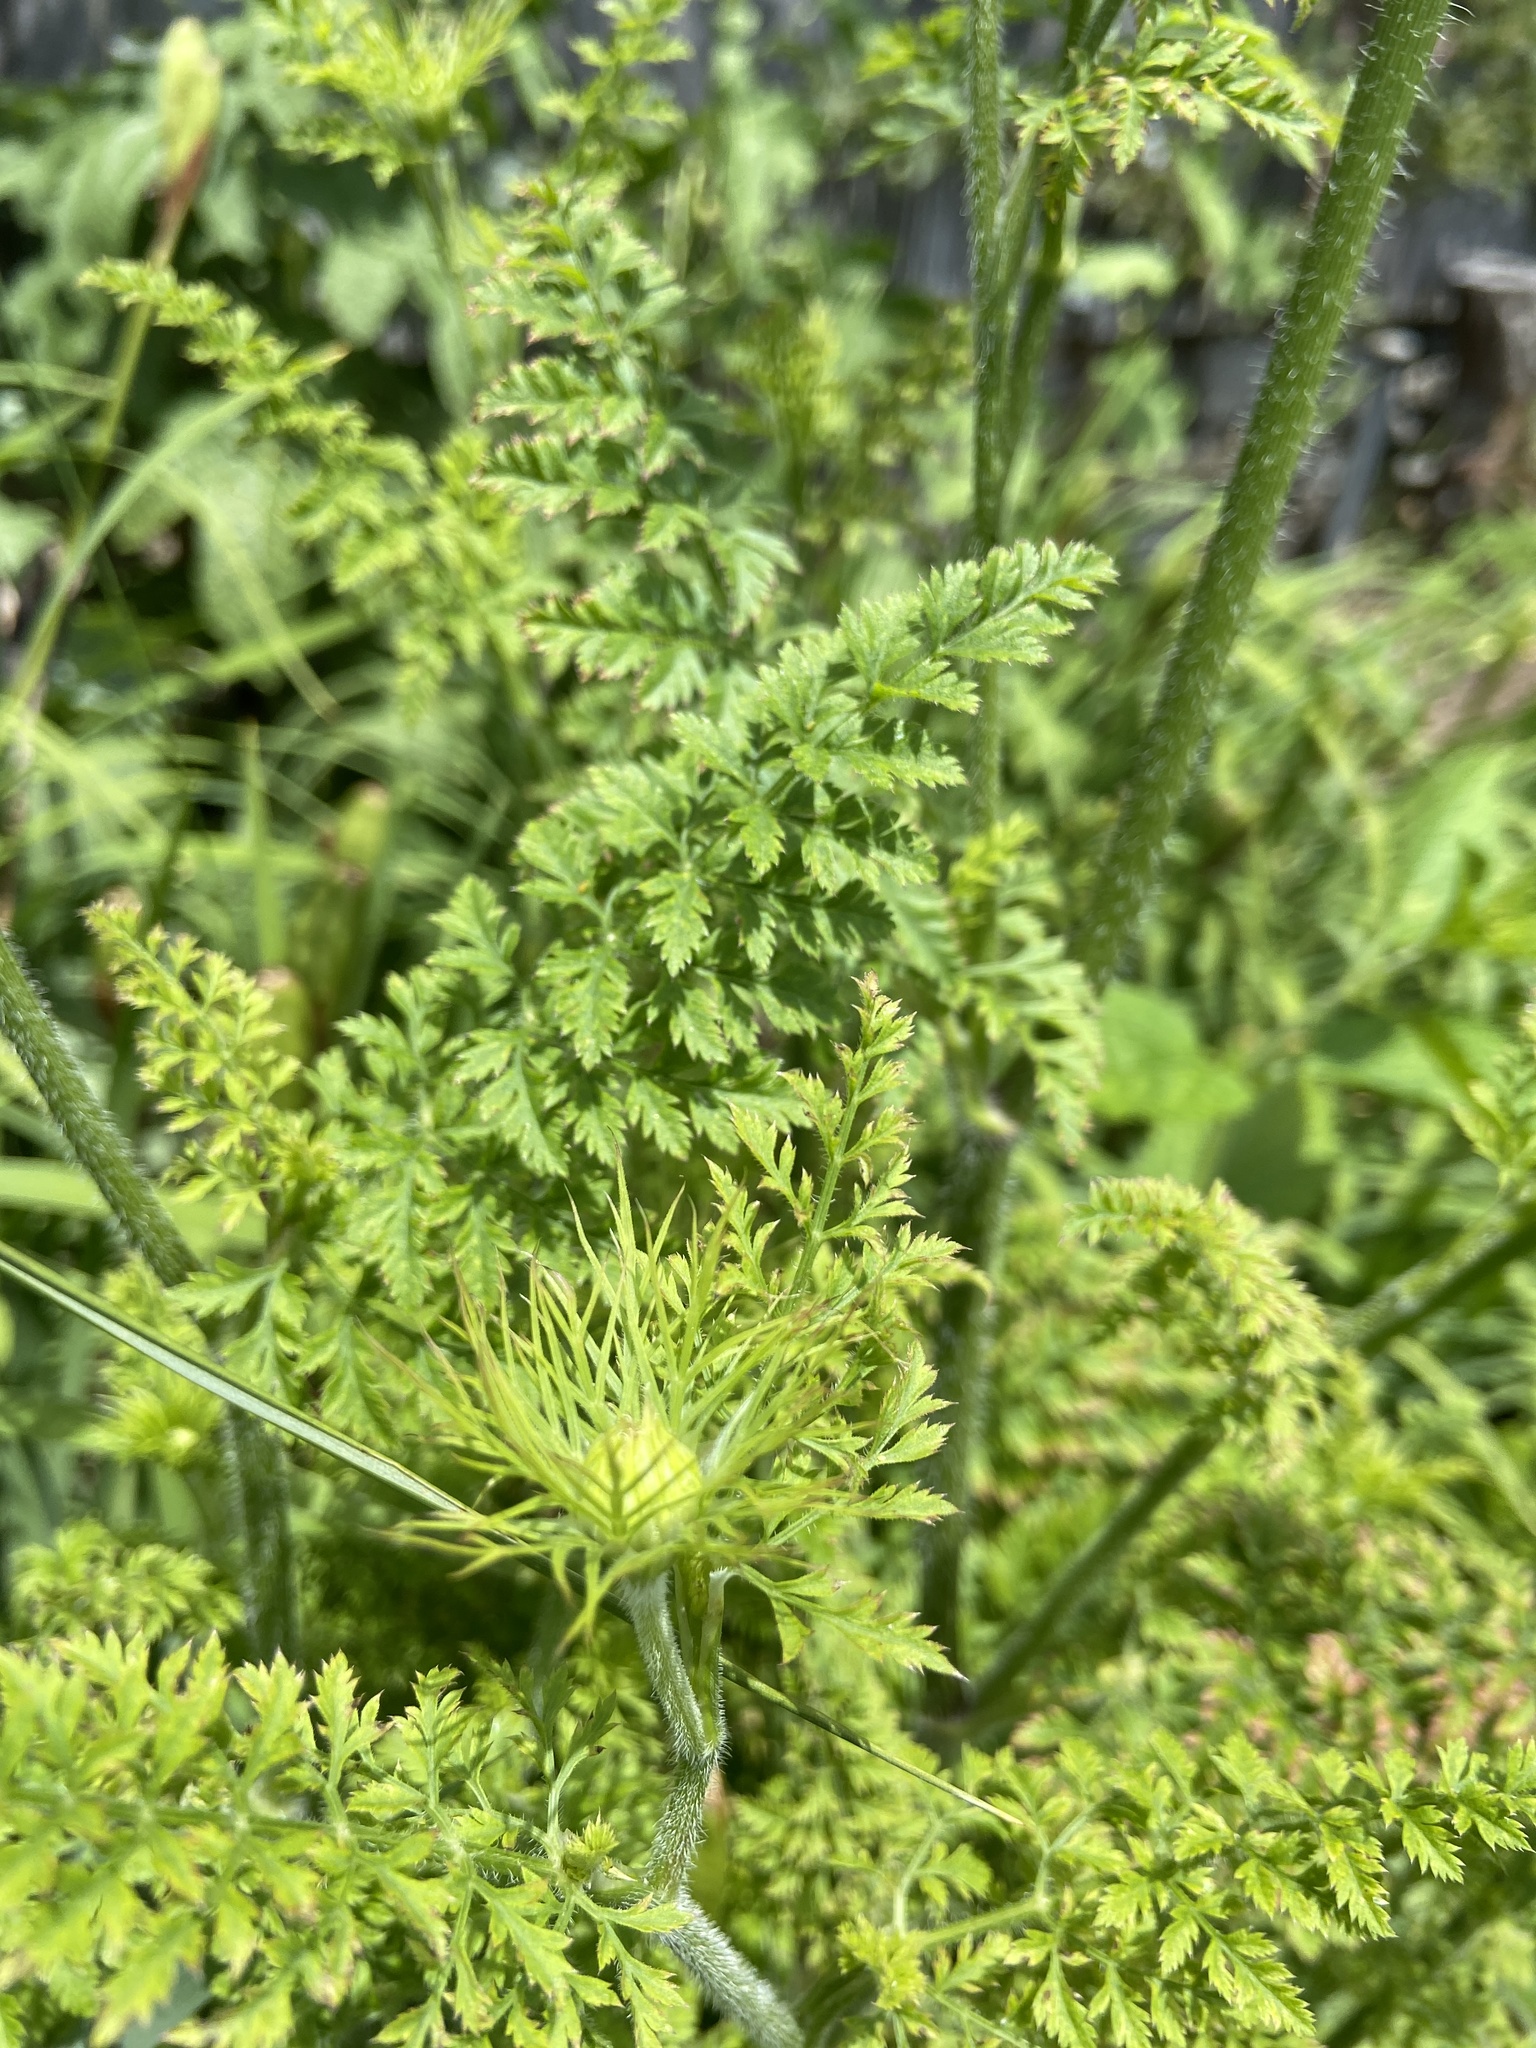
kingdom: Plantae
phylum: Tracheophyta
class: Magnoliopsida
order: Apiales
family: Apiaceae
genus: Daucus
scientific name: Daucus carota
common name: Wild carrot
